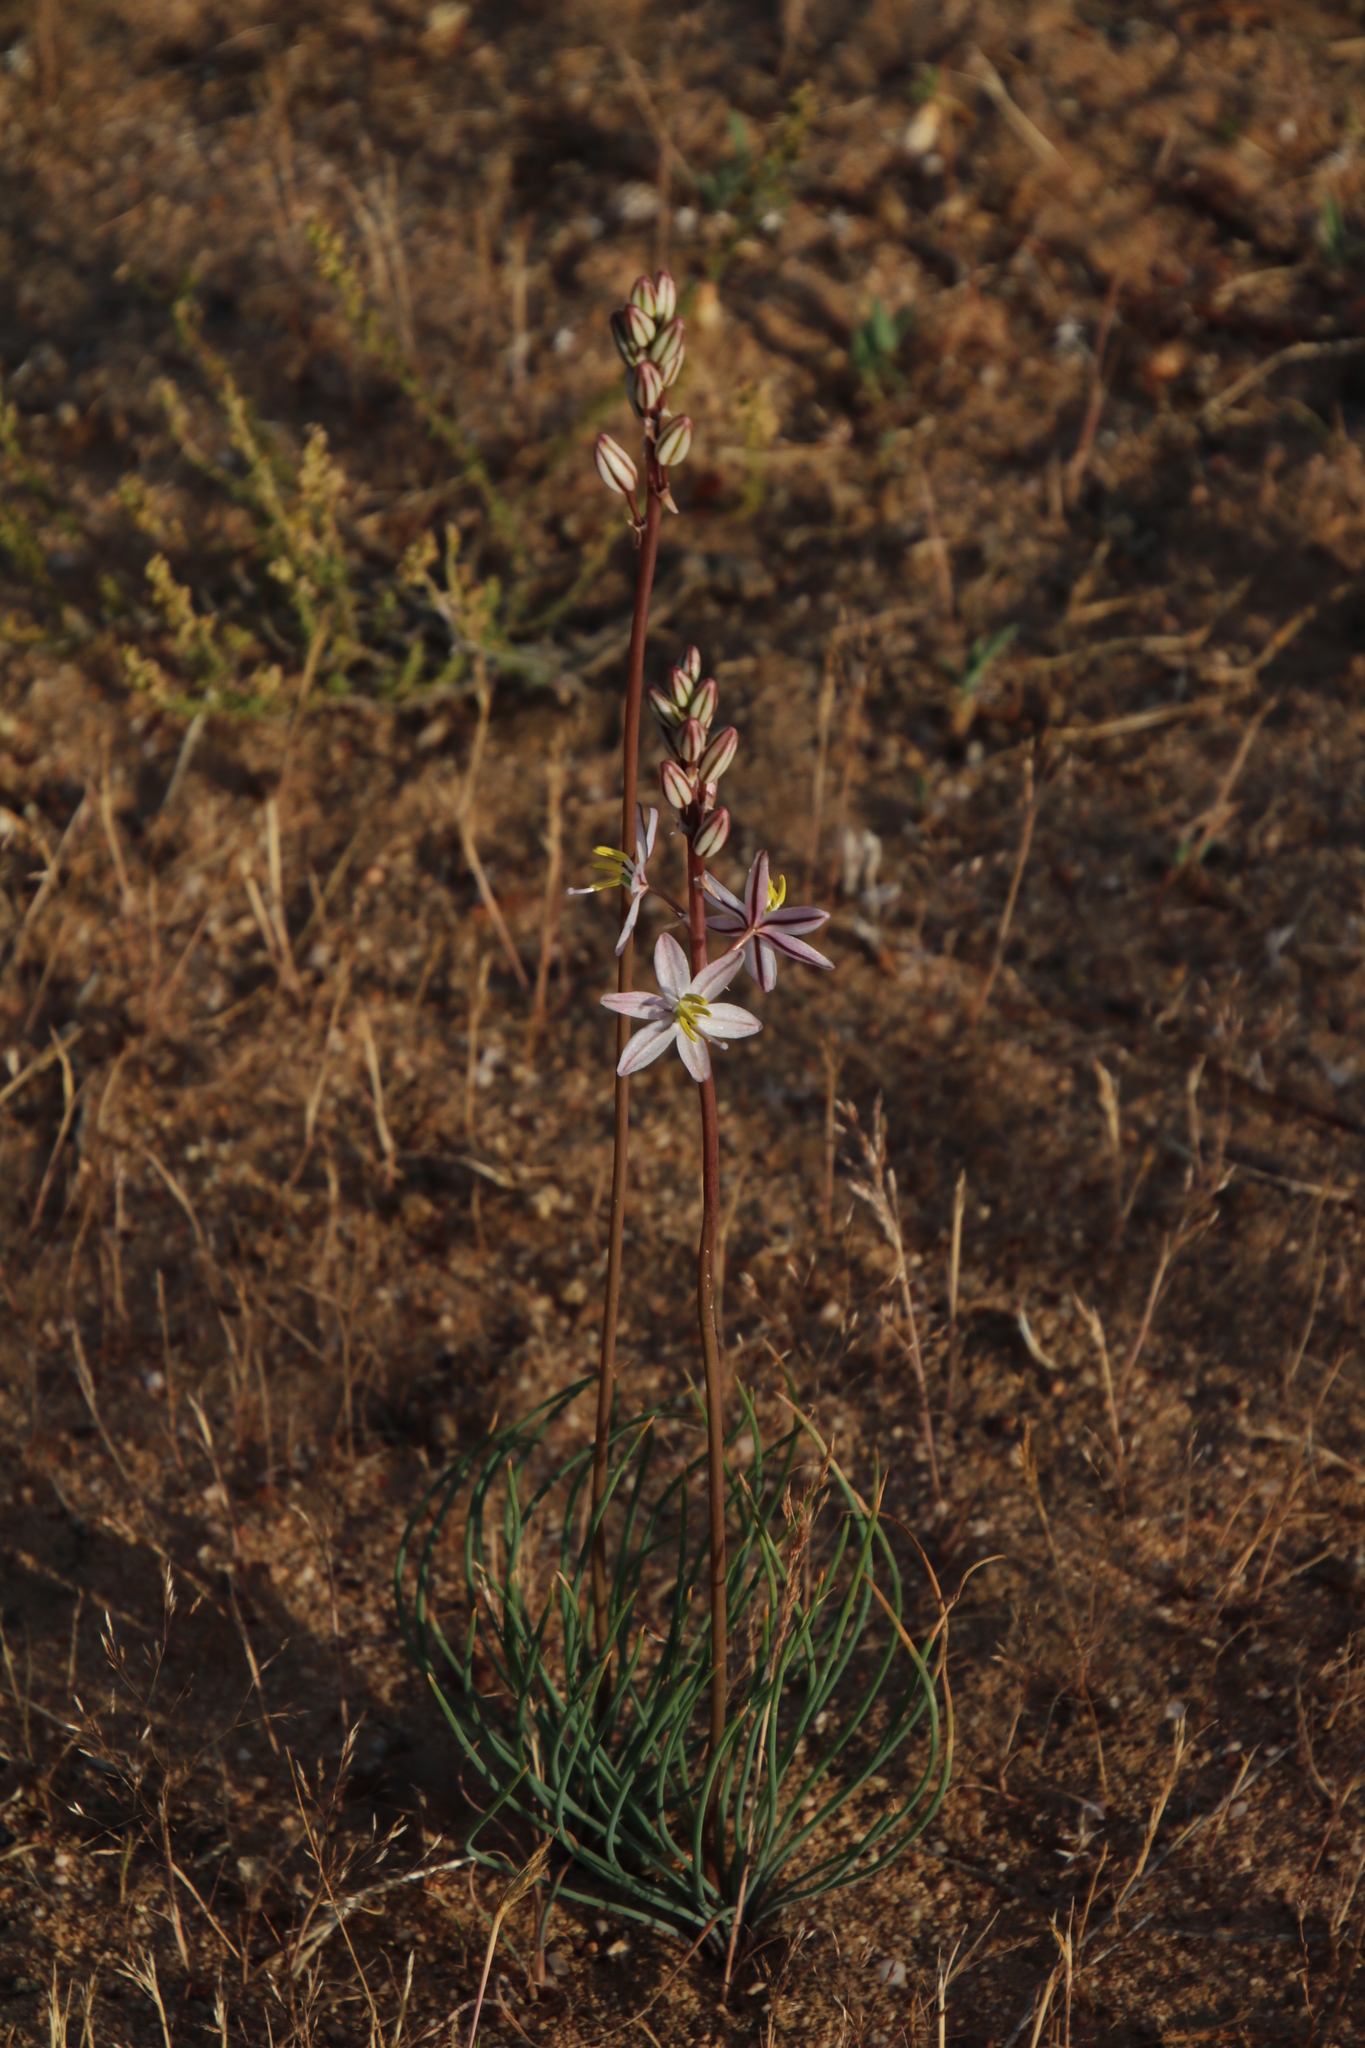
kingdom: Plantae
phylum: Tracheophyta
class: Liliopsida
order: Asparagales
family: Asparagaceae
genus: Drimia
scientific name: Drimia multifolia
